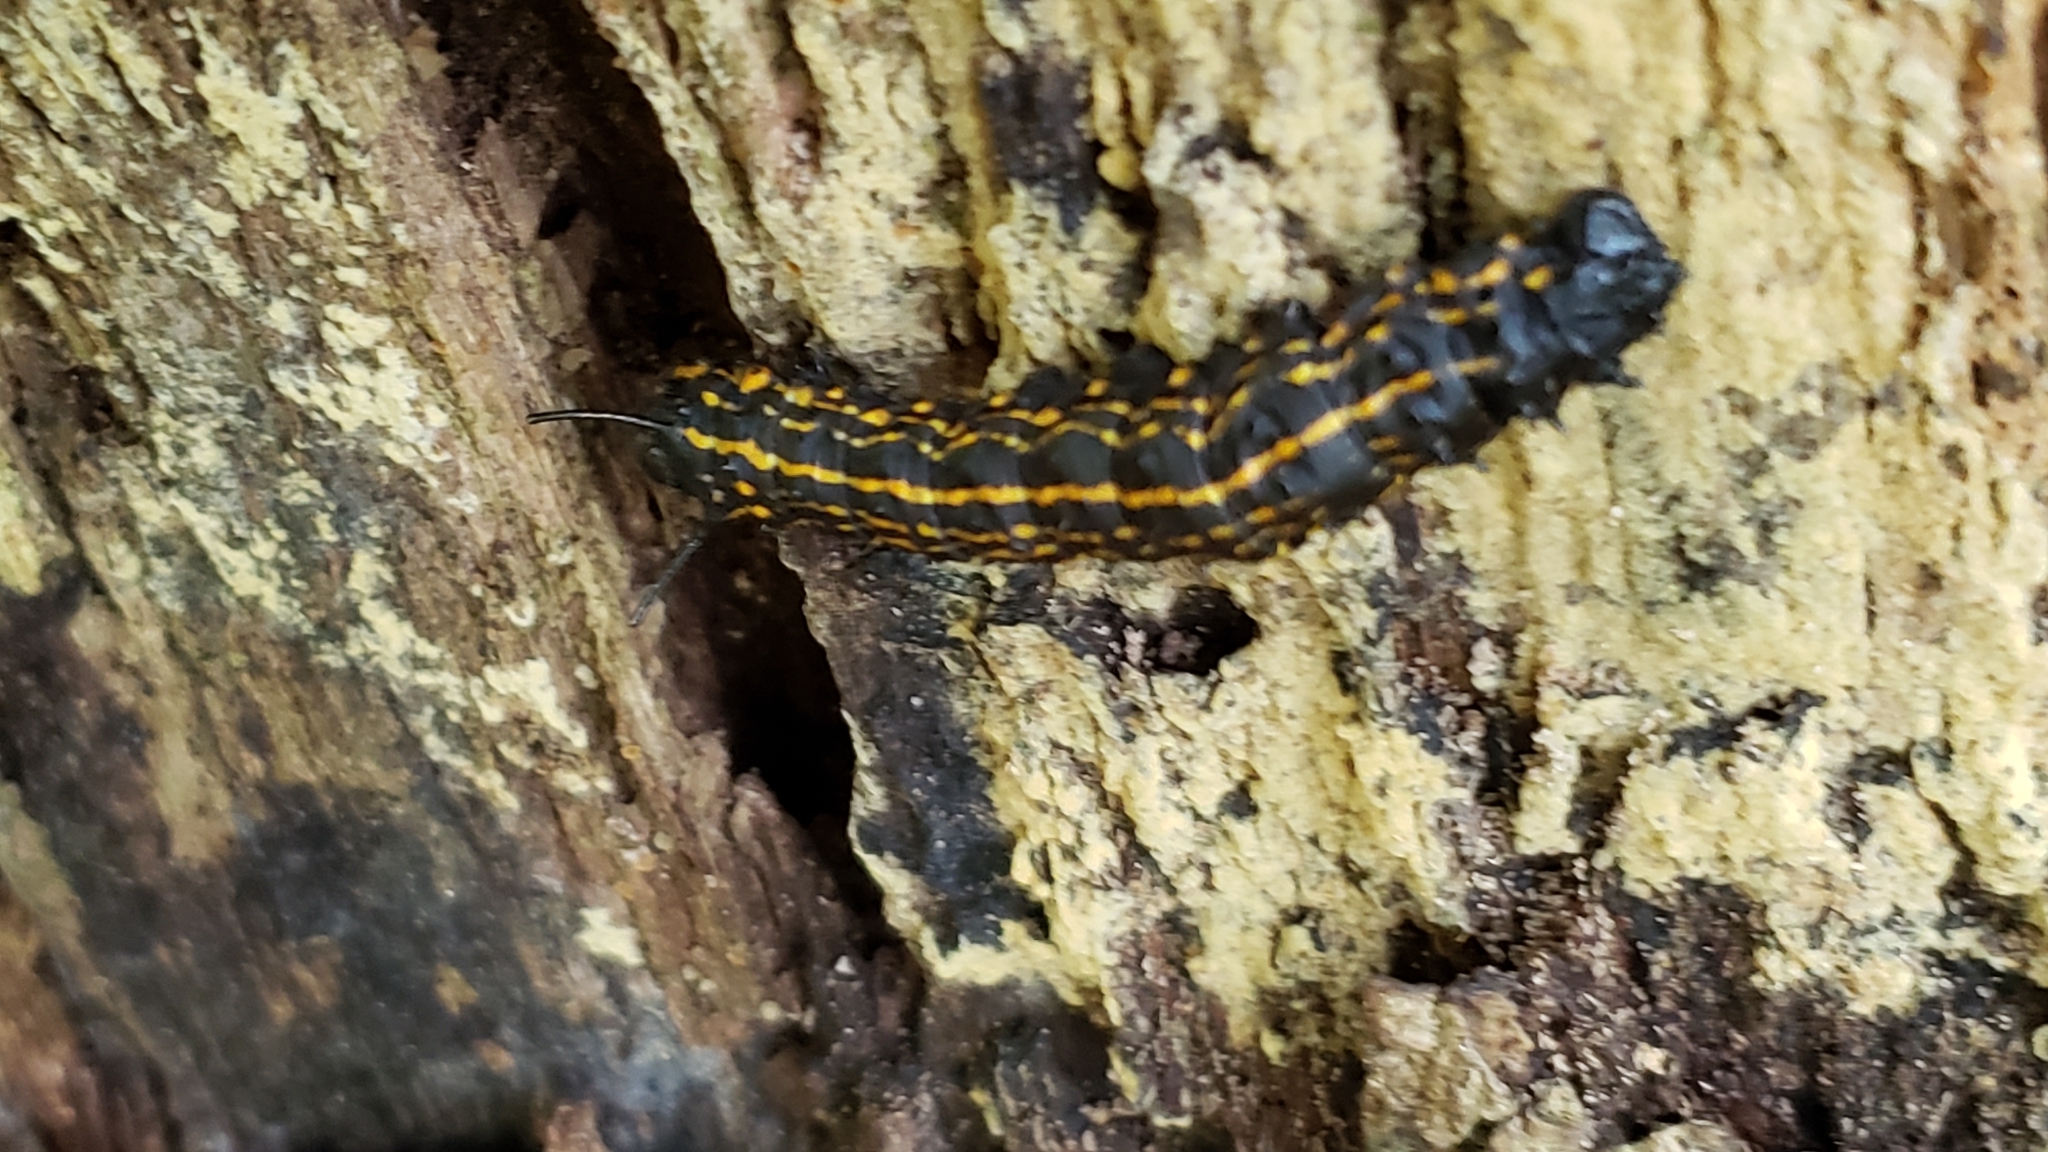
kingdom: Animalia
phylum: Arthropoda
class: Insecta
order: Lepidoptera
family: Saturniidae
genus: Anisota
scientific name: Anisota senatoria
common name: Orange-striped oakworm moth
